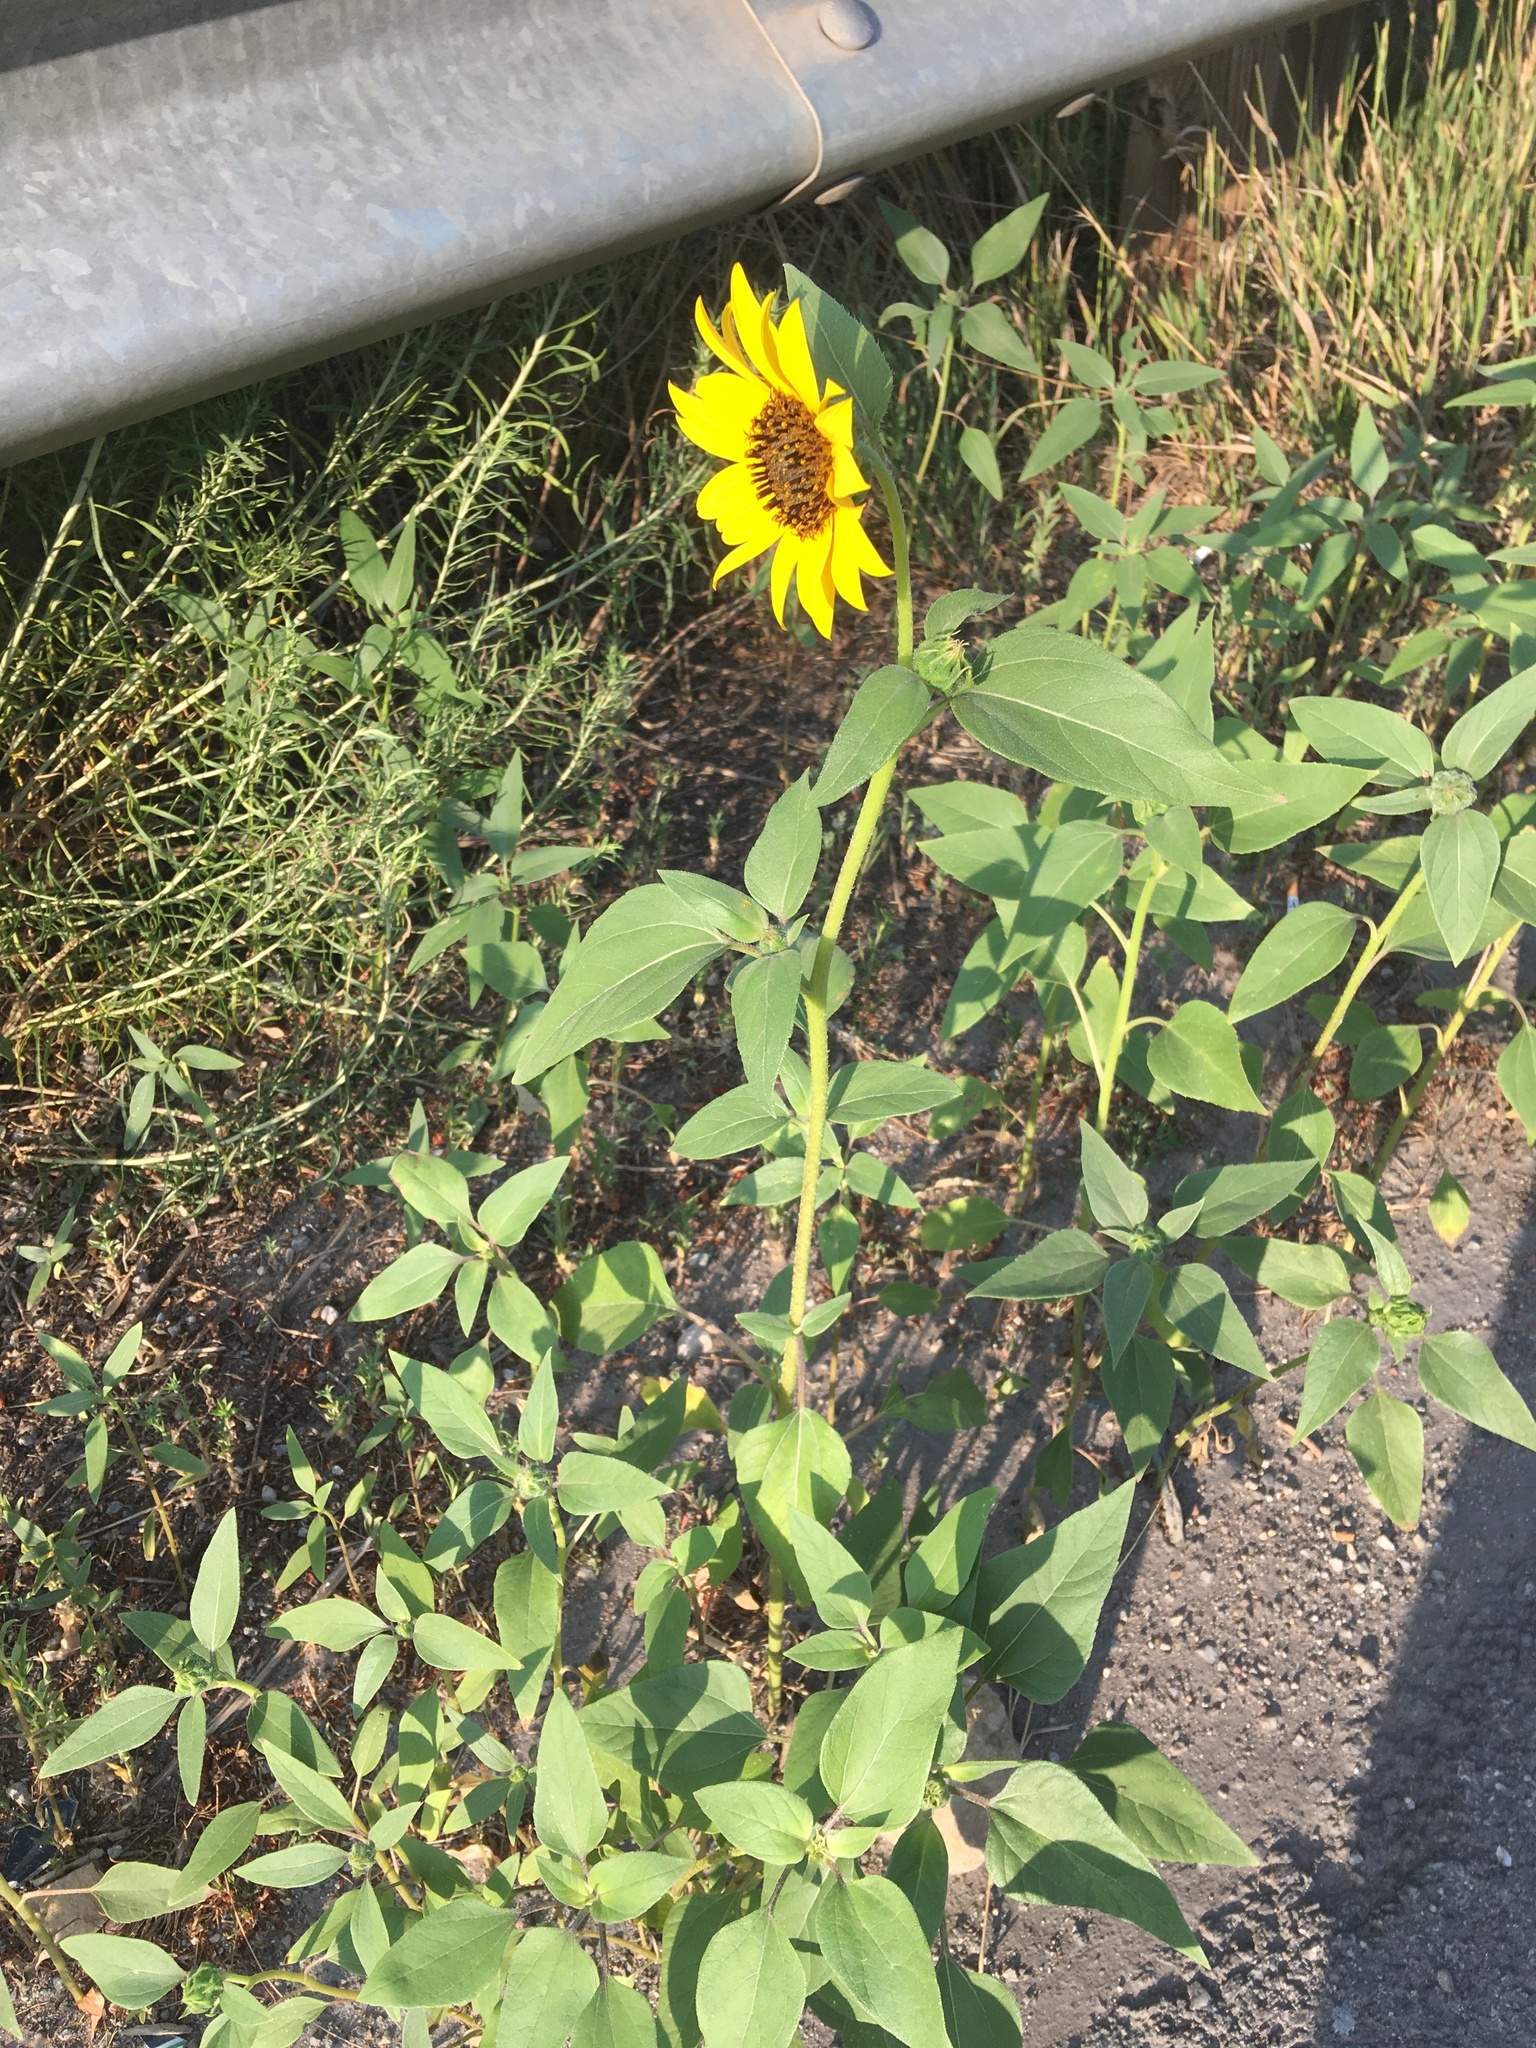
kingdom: Plantae
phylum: Tracheophyta
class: Magnoliopsida
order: Asterales
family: Asteraceae
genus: Helianthus
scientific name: Helianthus annuus
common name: Sunflower
